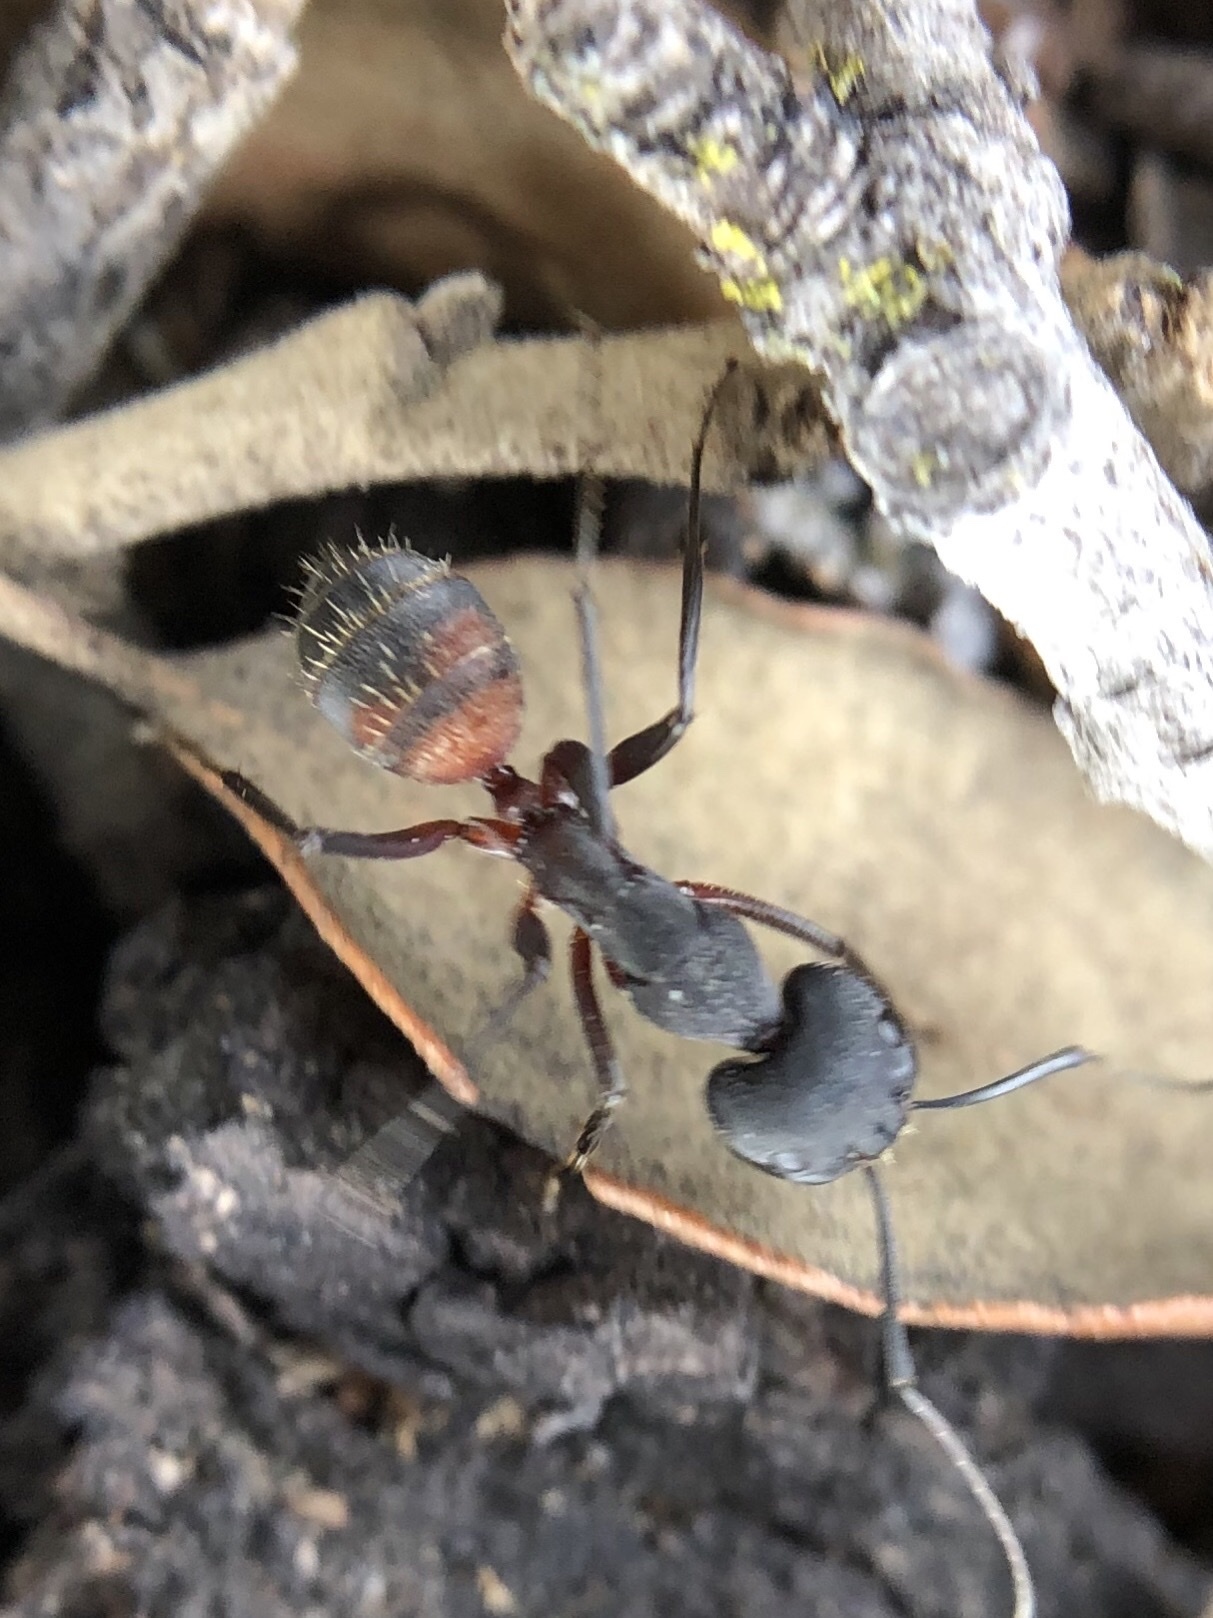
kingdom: Animalia
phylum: Arthropoda
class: Insecta
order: Hymenoptera
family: Formicidae
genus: Camponotus
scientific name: Camponotus cruentatus
